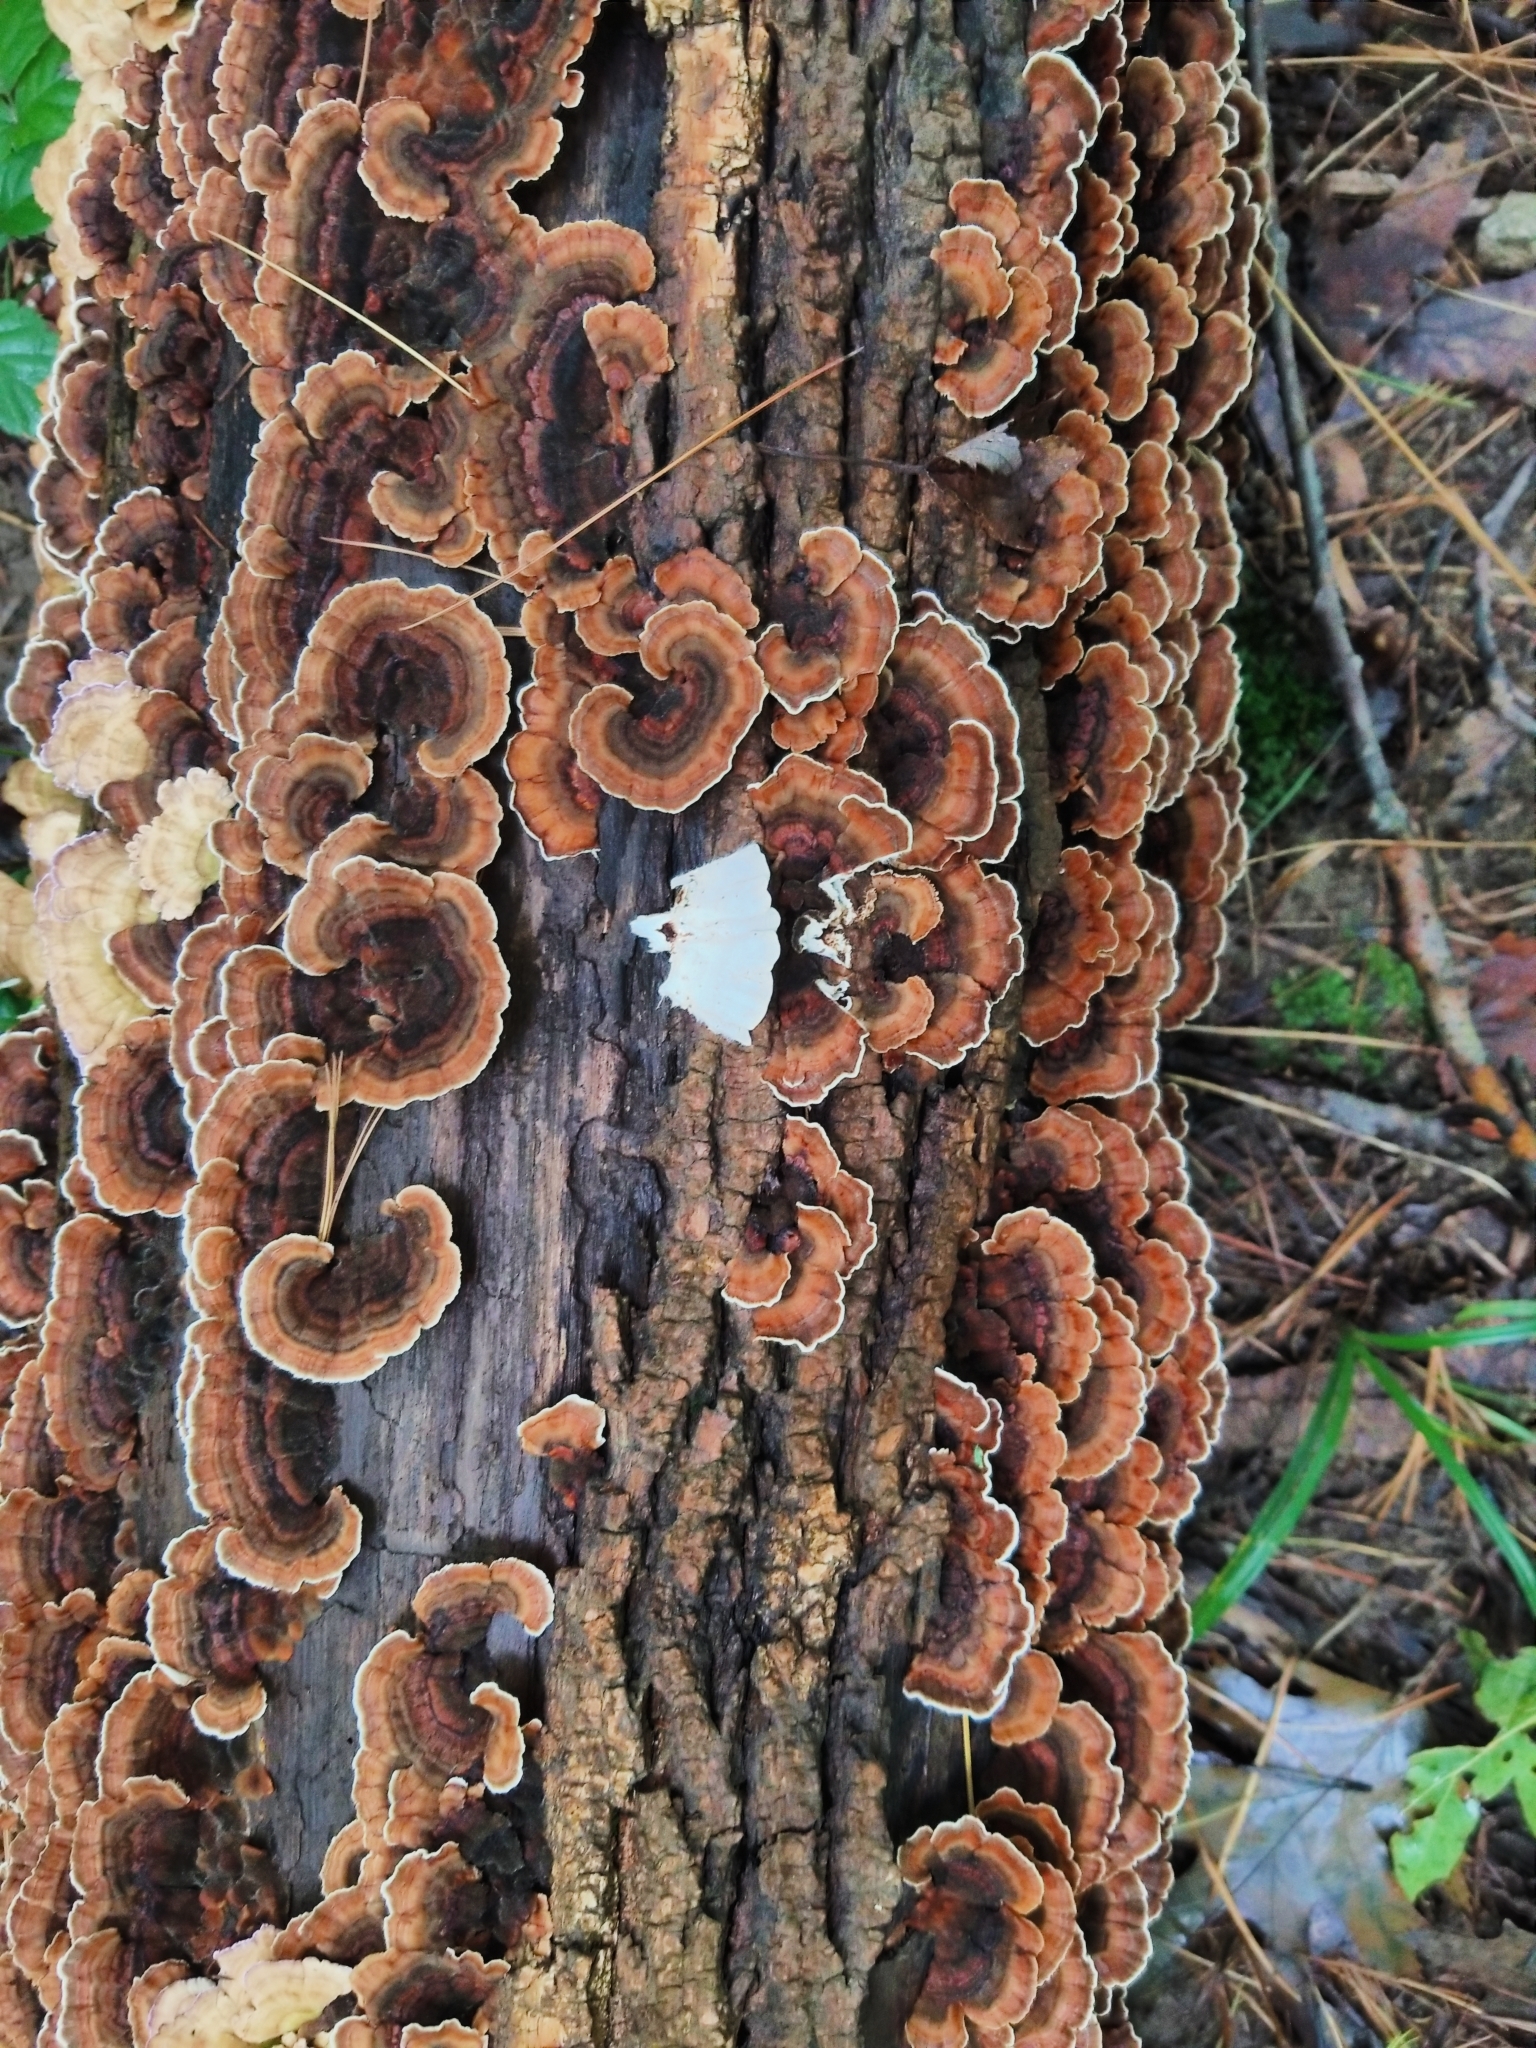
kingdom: Fungi
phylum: Basidiomycota
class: Agaricomycetes
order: Polyporales
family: Polyporaceae
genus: Trametes
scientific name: Trametes versicolor
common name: Turkeytail
